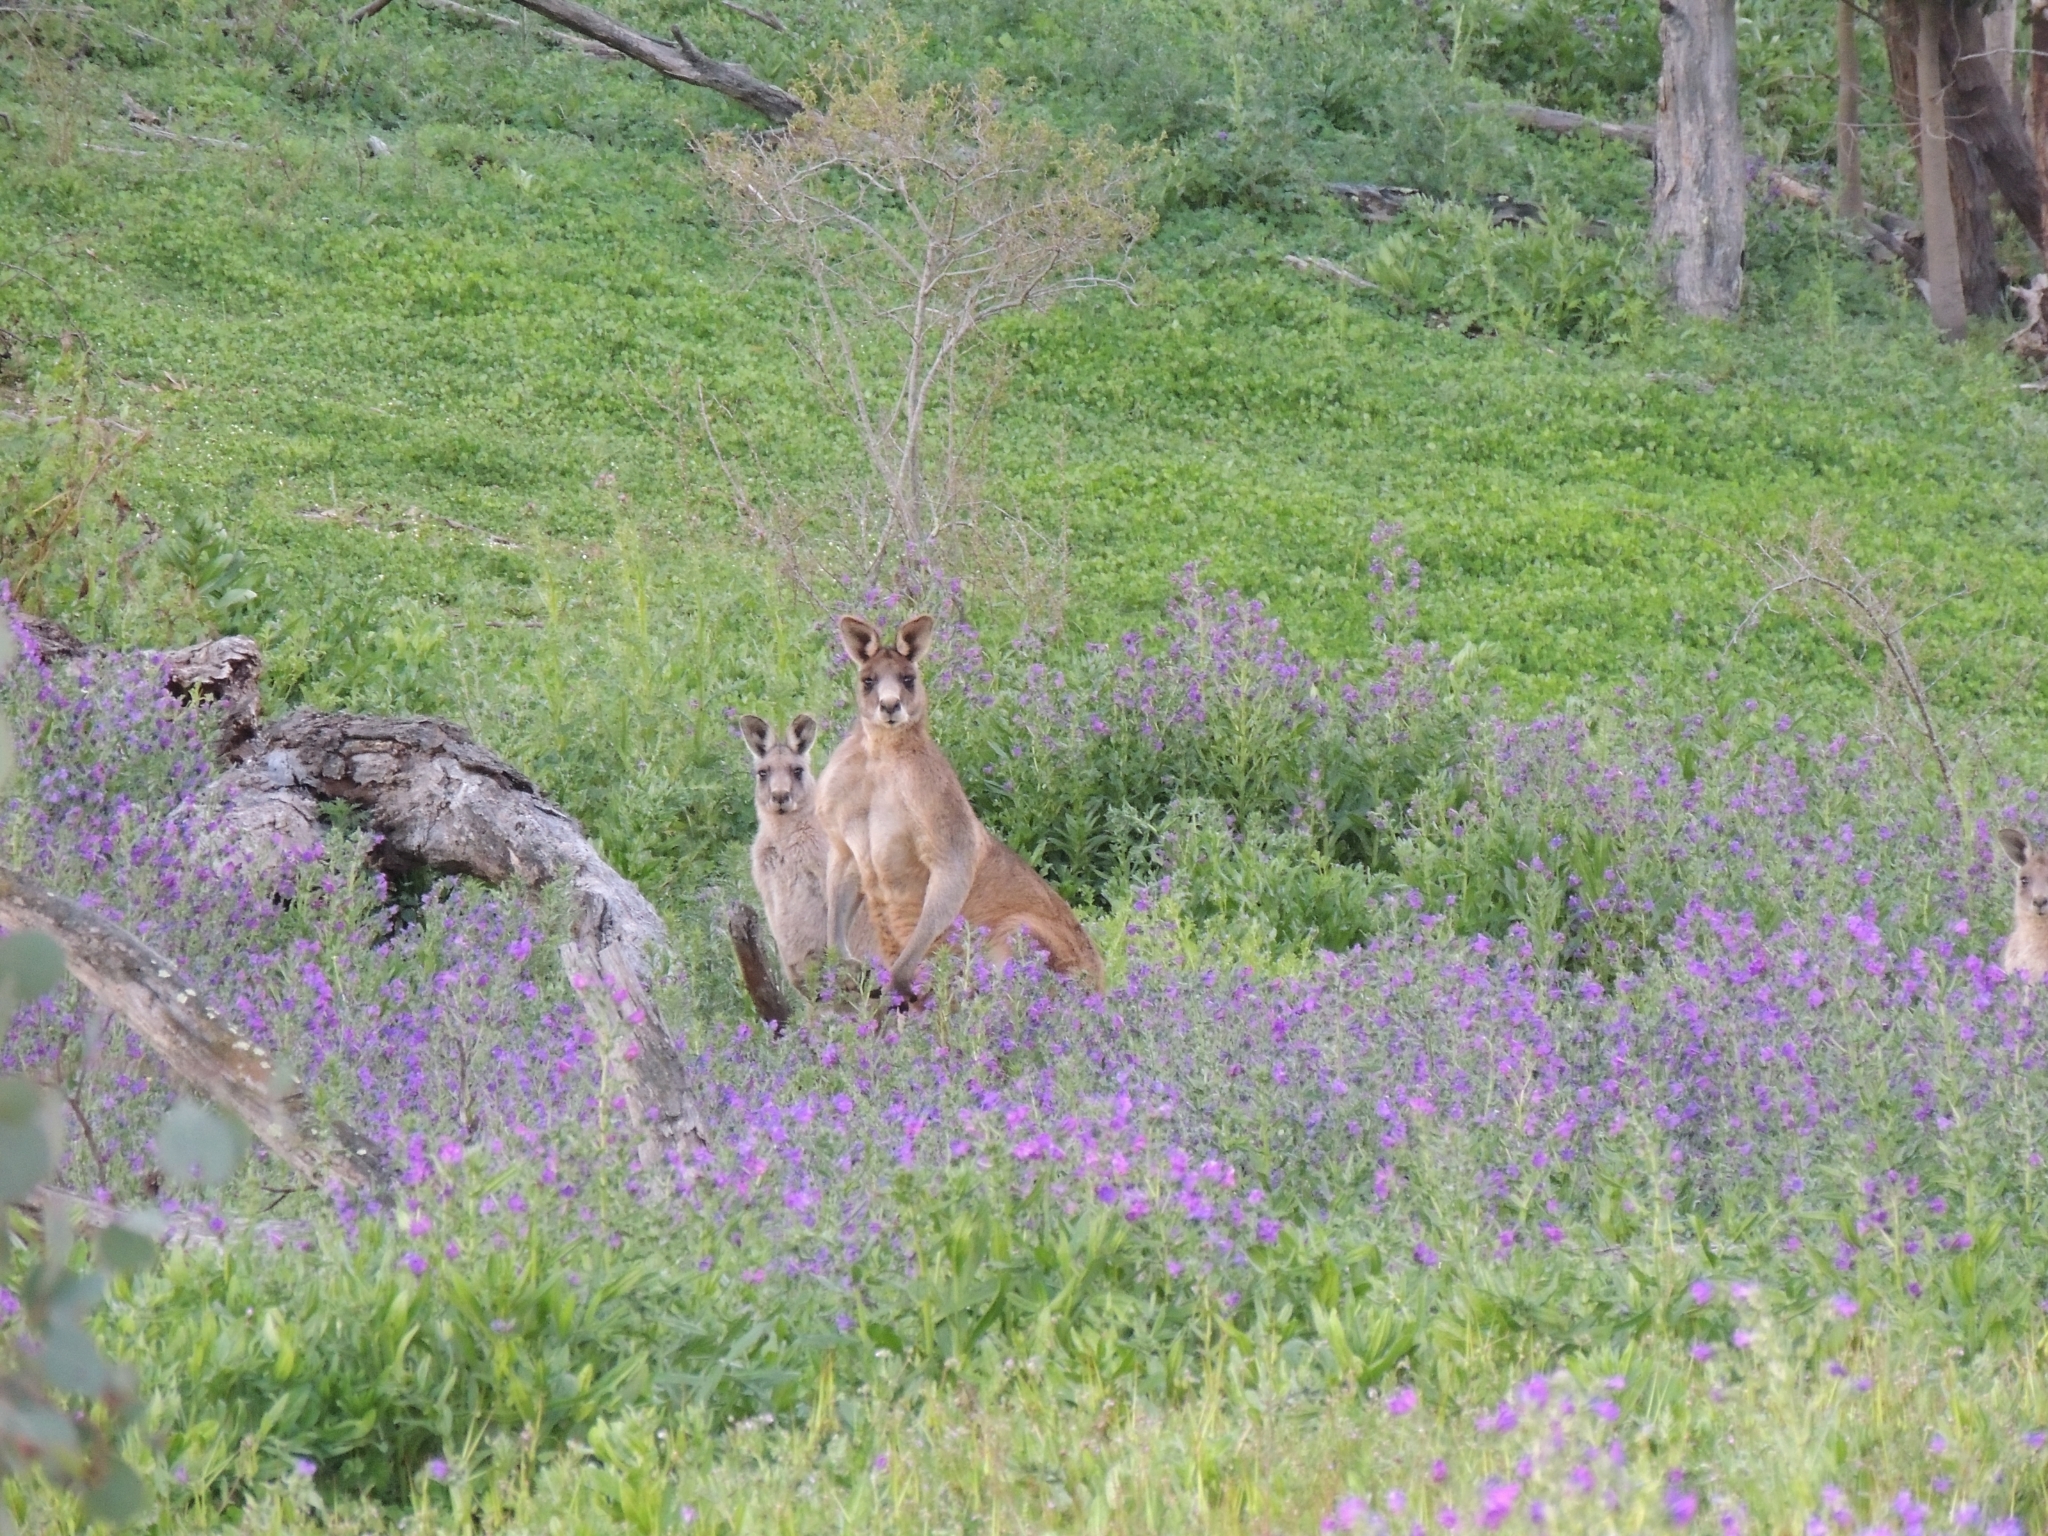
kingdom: Animalia
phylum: Chordata
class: Mammalia
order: Diprotodontia
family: Macropodidae
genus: Macropus
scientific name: Macropus giganteus
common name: Eastern grey kangaroo
